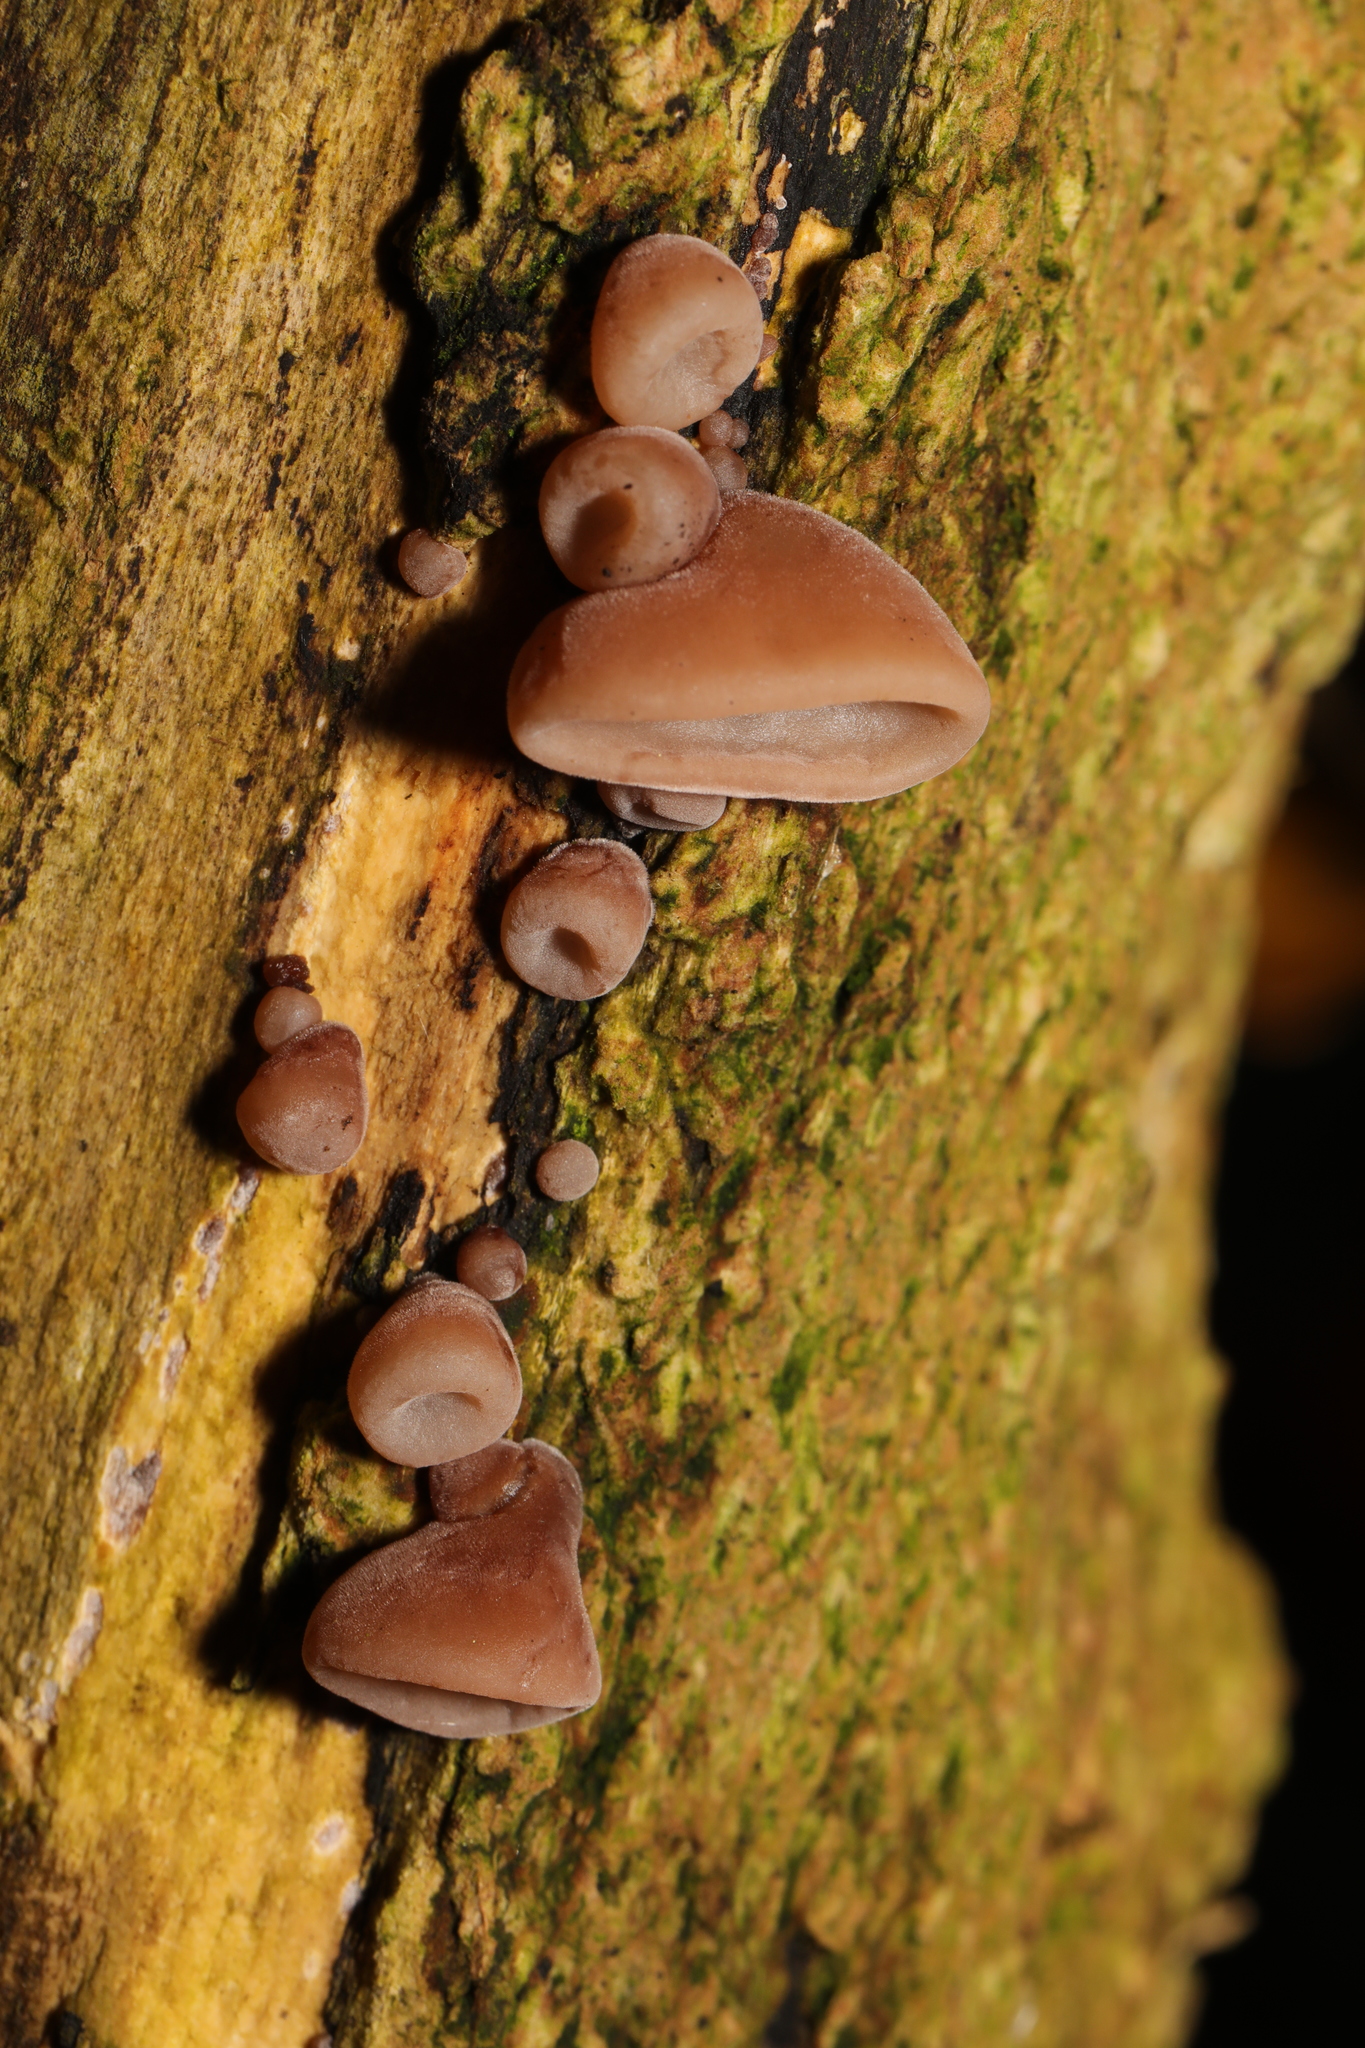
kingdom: Fungi
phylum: Basidiomycota
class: Agaricomycetes
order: Auriculariales
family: Auriculariaceae
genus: Auricularia
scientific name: Auricularia auricula-judae
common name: Jelly ear
